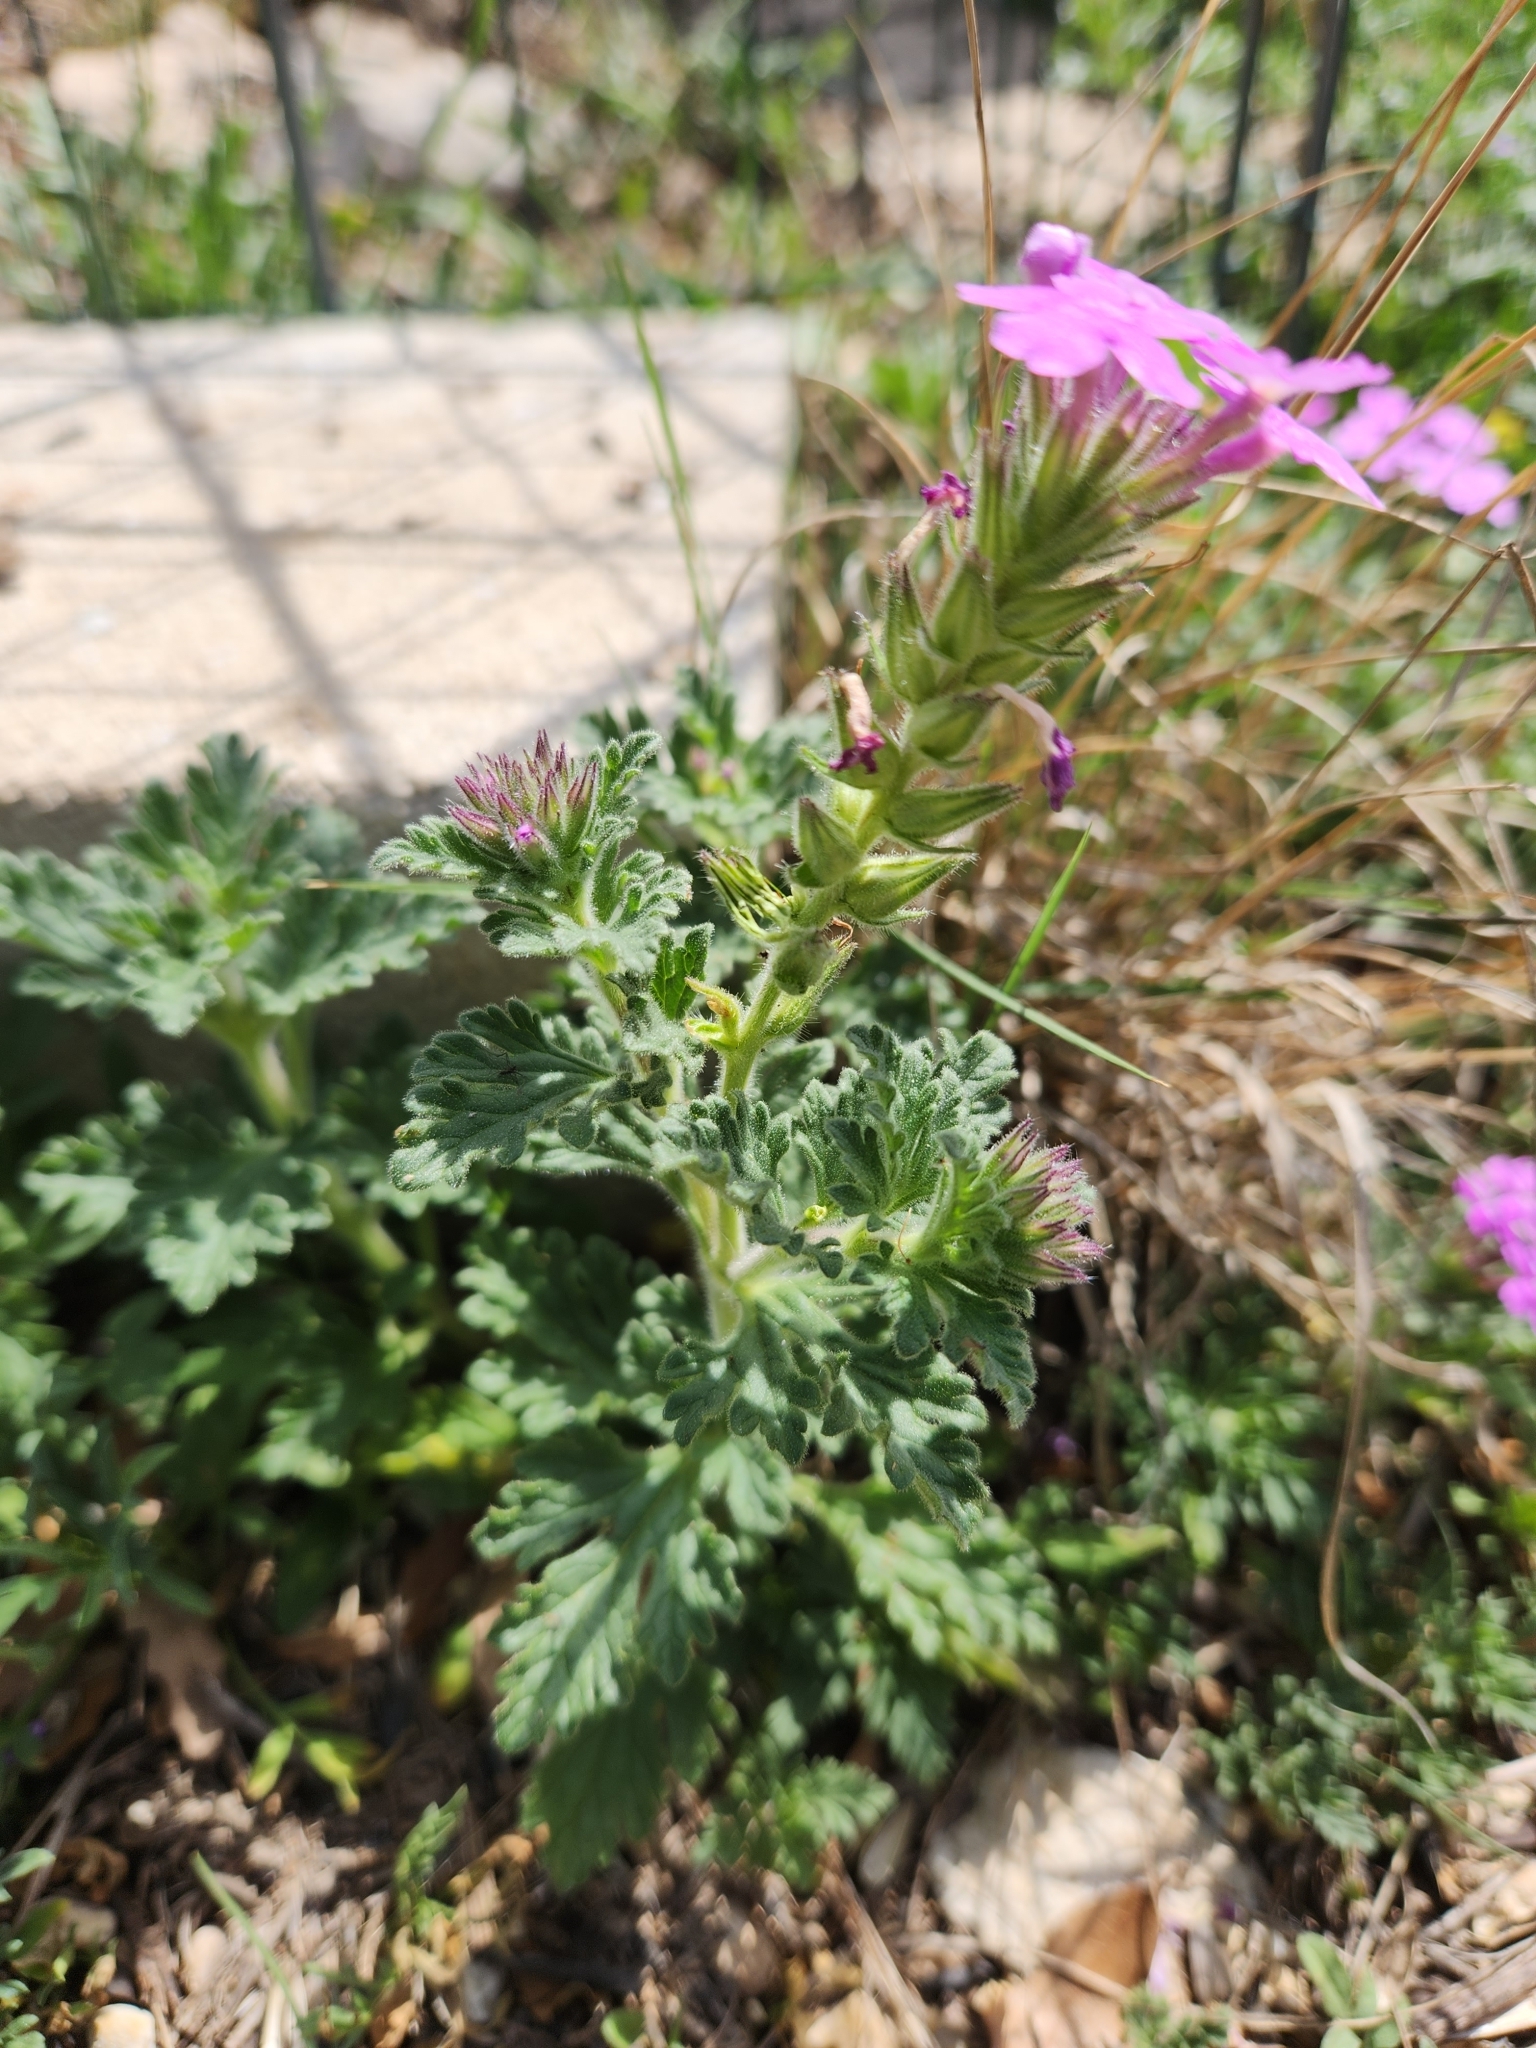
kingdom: Plantae
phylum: Tracheophyta
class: Magnoliopsida
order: Lamiales
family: Verbenaceae
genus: Verbena
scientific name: Verbena tumidula
